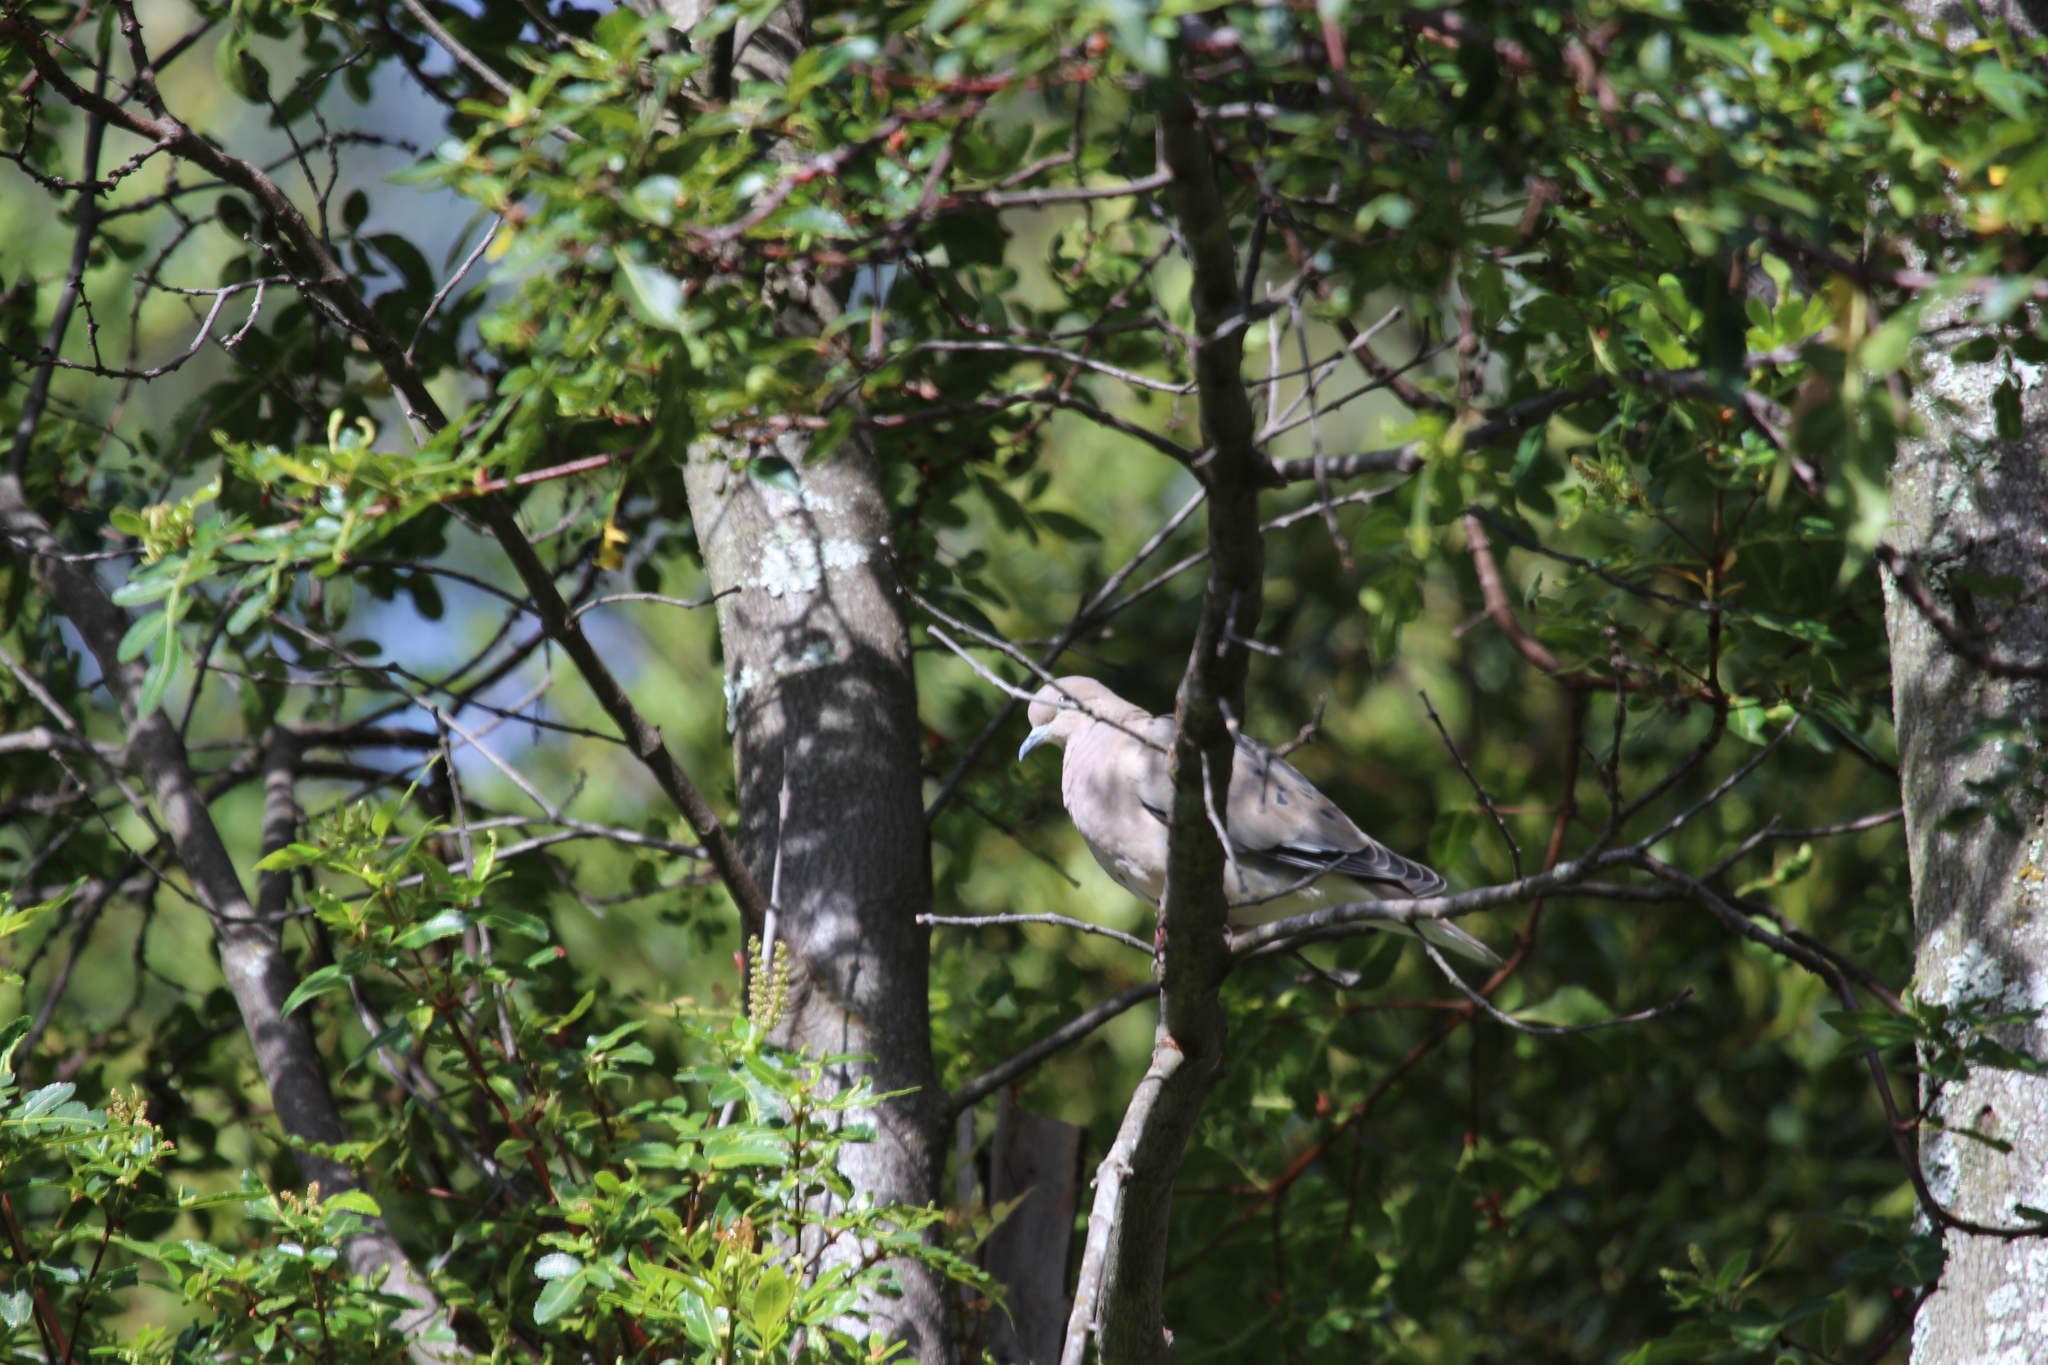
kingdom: Animalia
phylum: Chordata
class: Aves
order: Columbiformes
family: Columbidae
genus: Zenaida
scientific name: Zenaida auriculata
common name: Eared dove
